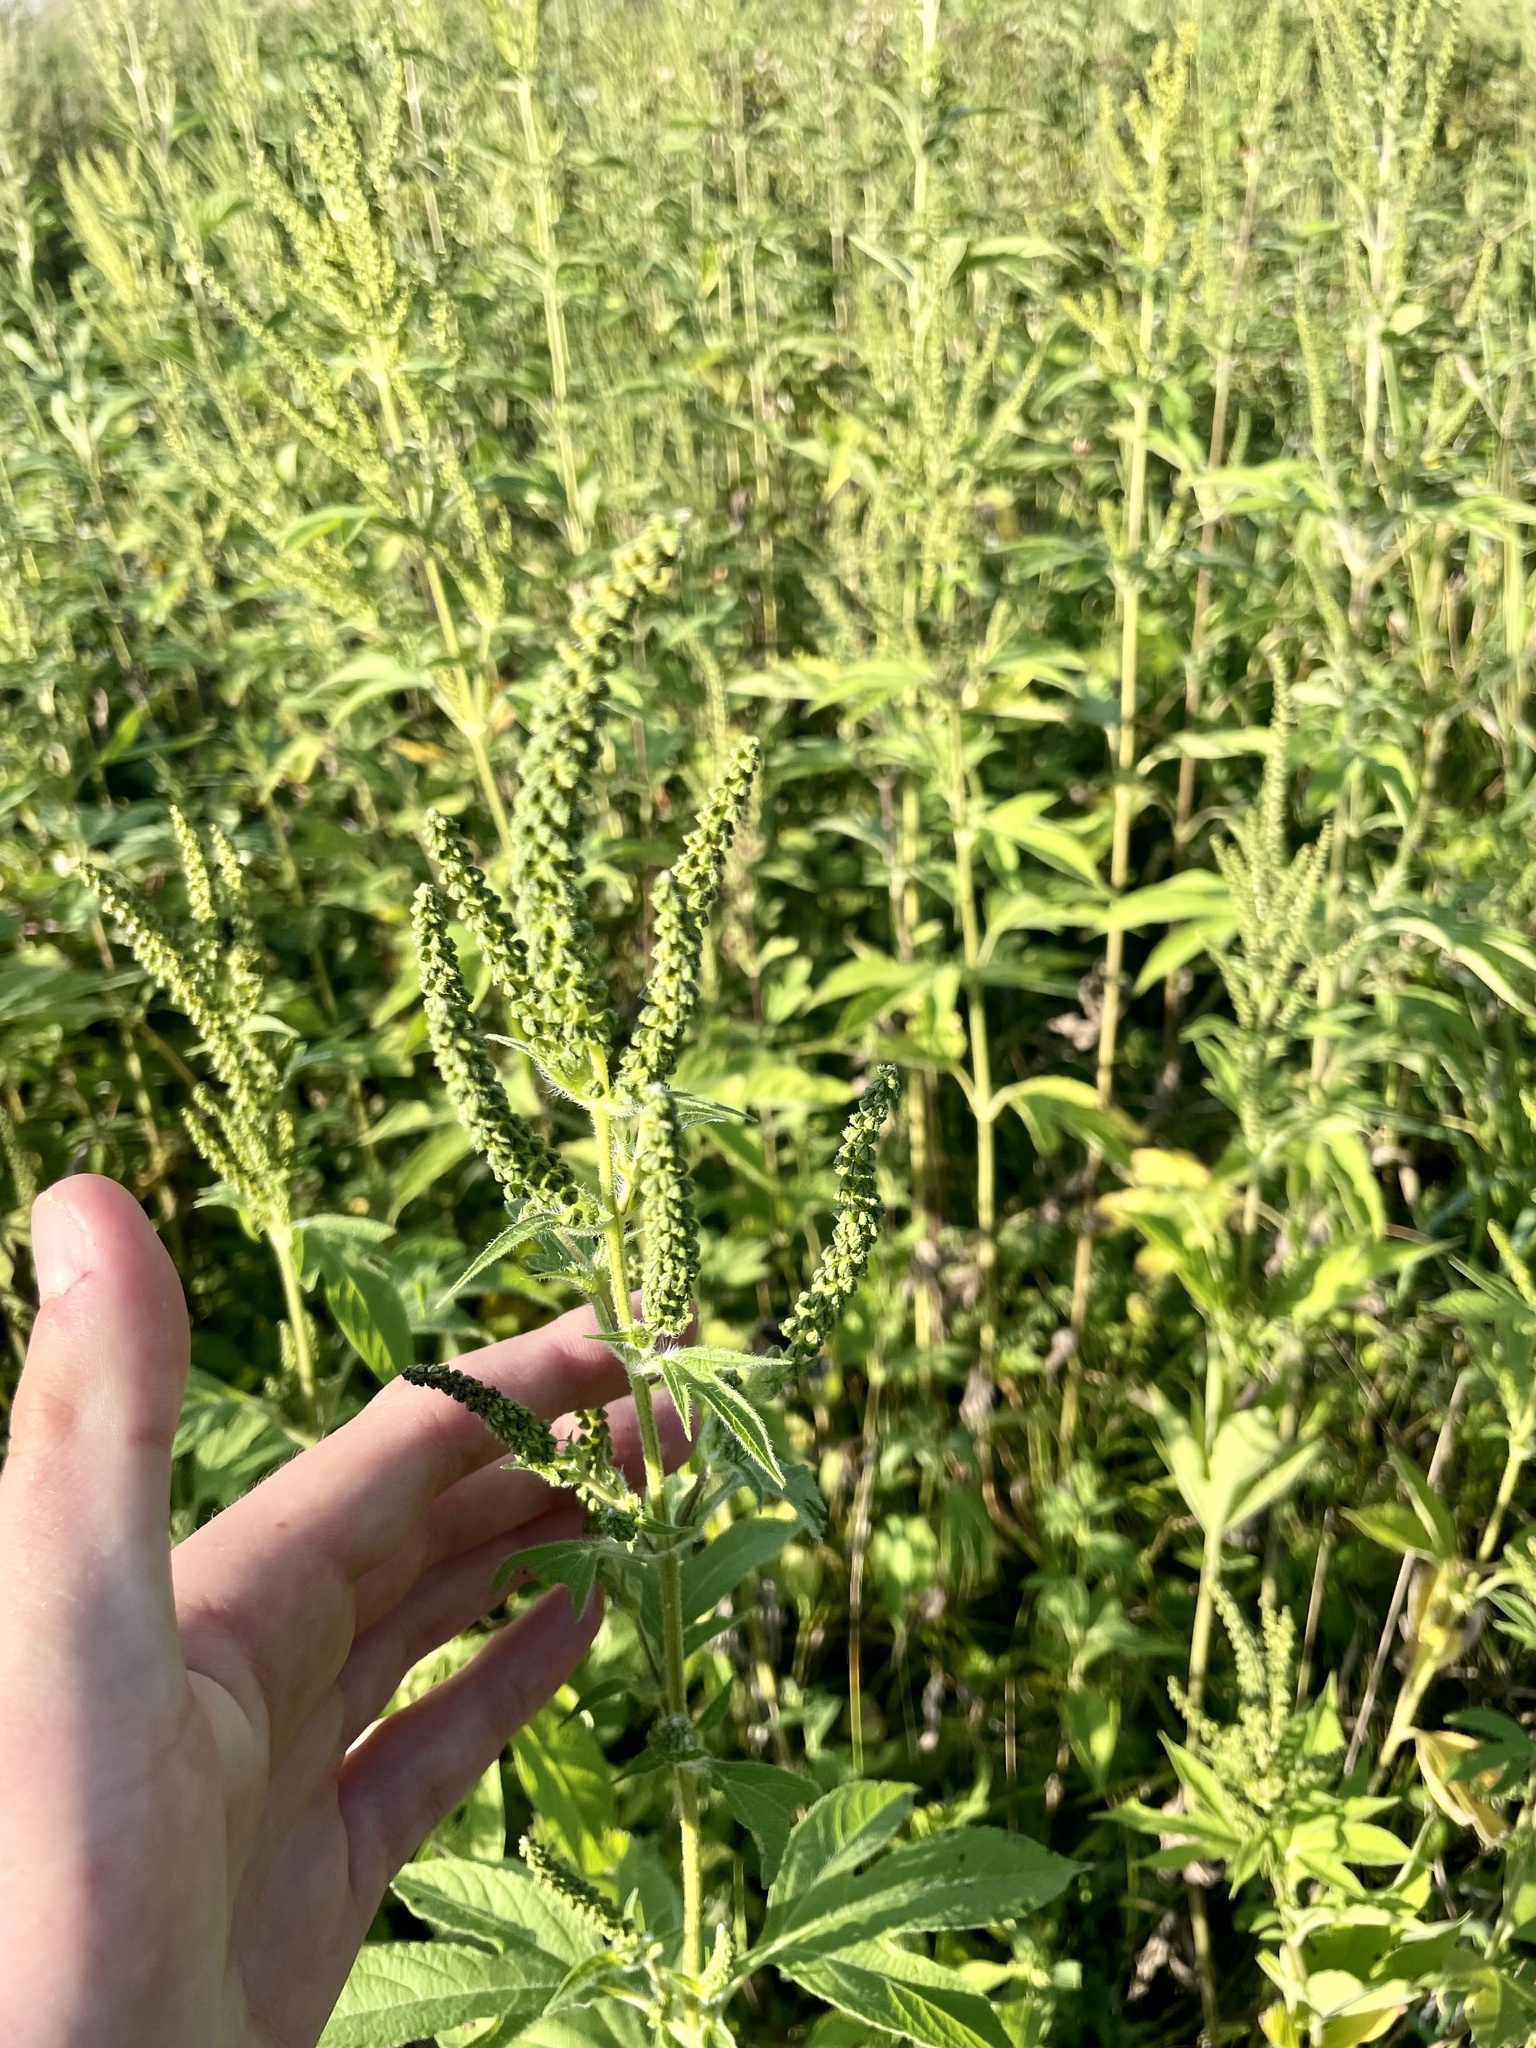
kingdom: Plantae
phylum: Tracheophyta
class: Magnoliopsida
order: Asterales
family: Asteraceae
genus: Ambrosia
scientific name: Ambrosia trifida
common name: Giant ragweed
